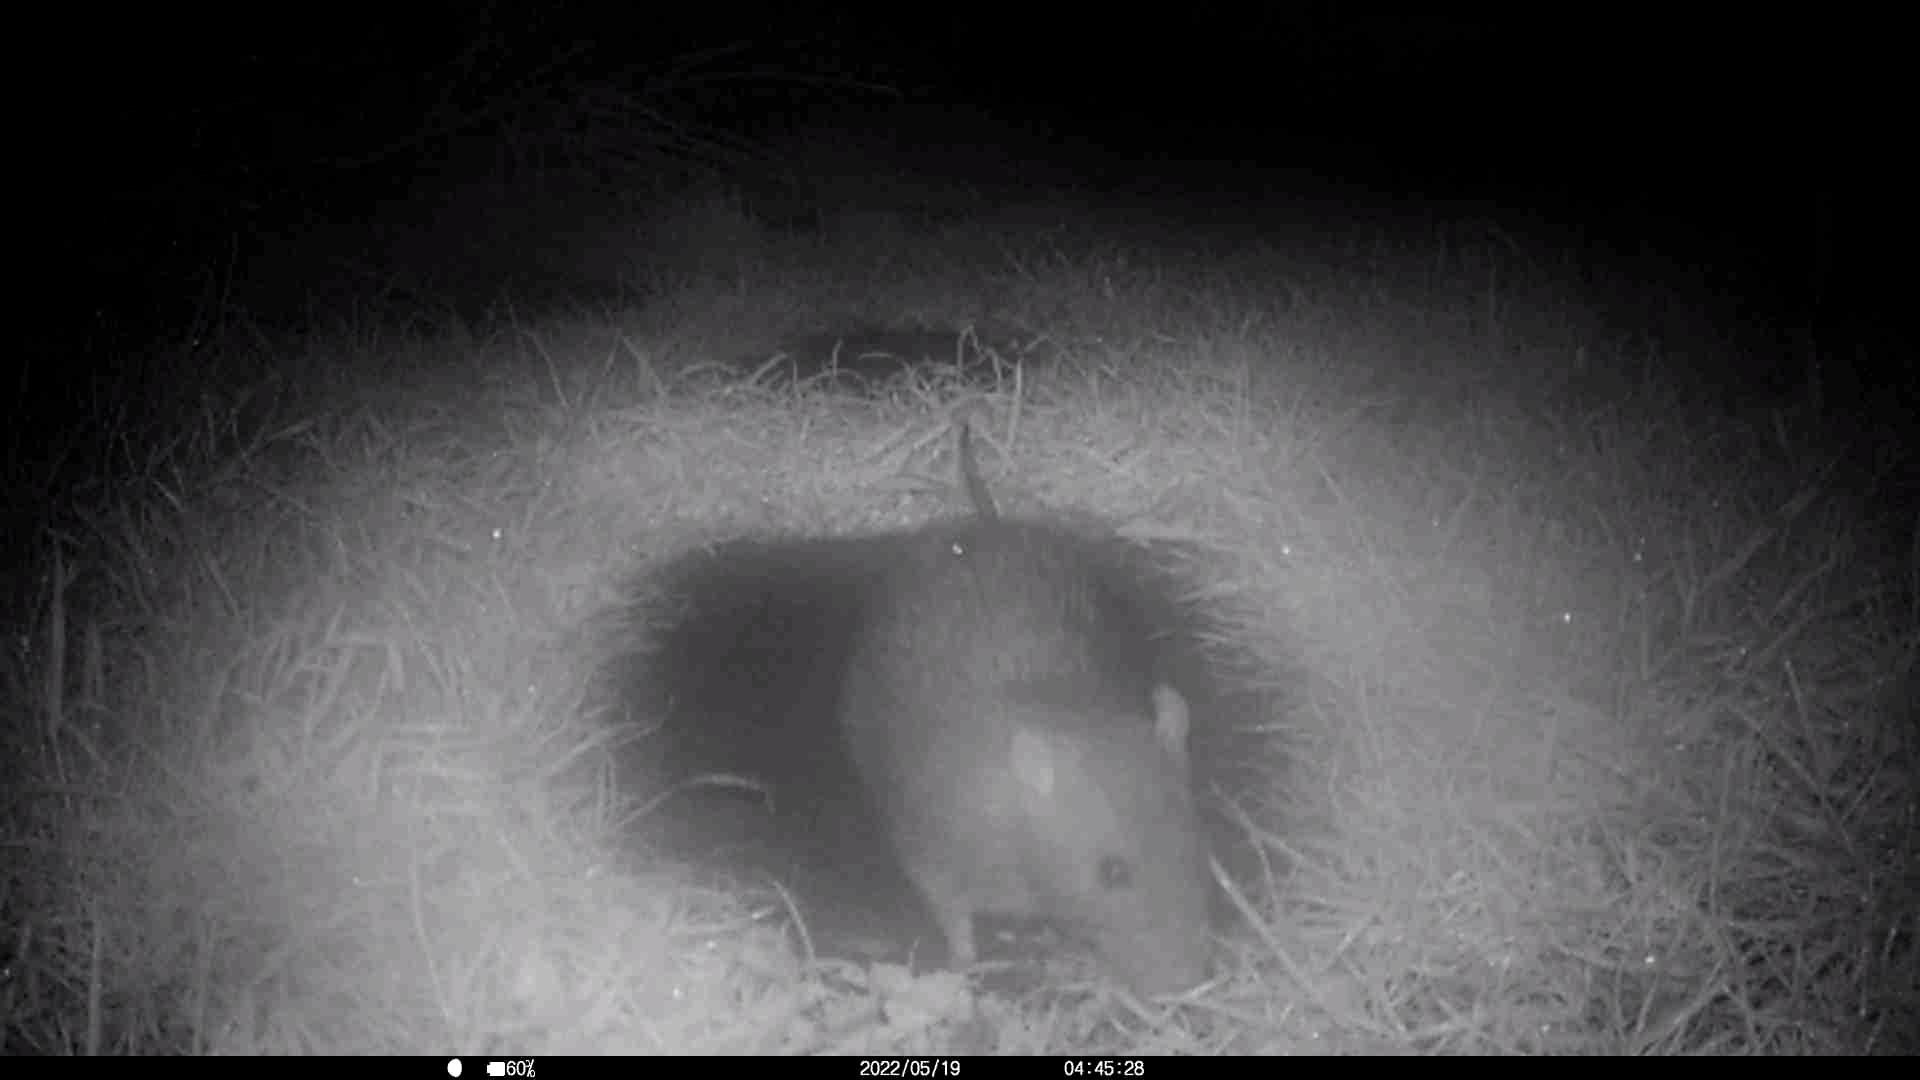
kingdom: Animalia
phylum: Chordata
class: Mammalia
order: Rodentia
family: Muridae
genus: Rattus
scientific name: Rattus norvegicus
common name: Brown rat
